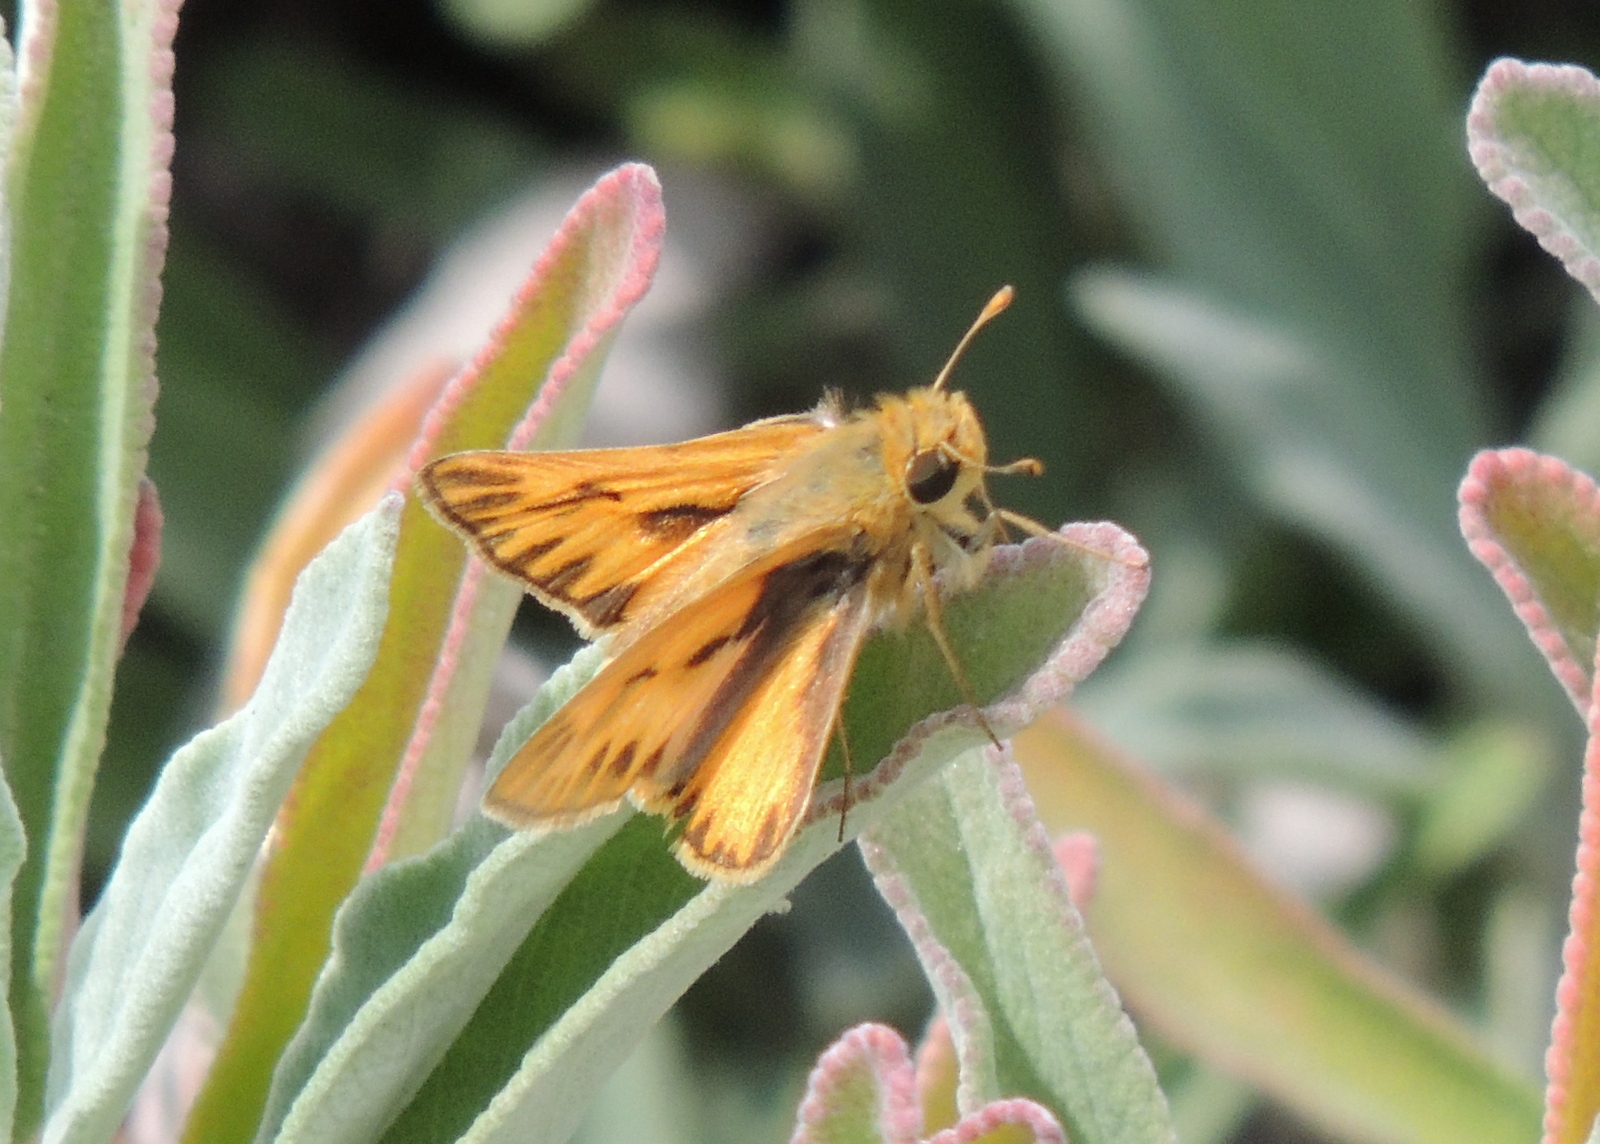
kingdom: Animalia
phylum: Arthropoda
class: Insecta
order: Lepidoptera
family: Hesperiidae
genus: Hylephila
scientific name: Hylephila phyleus
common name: Fiery skipper
